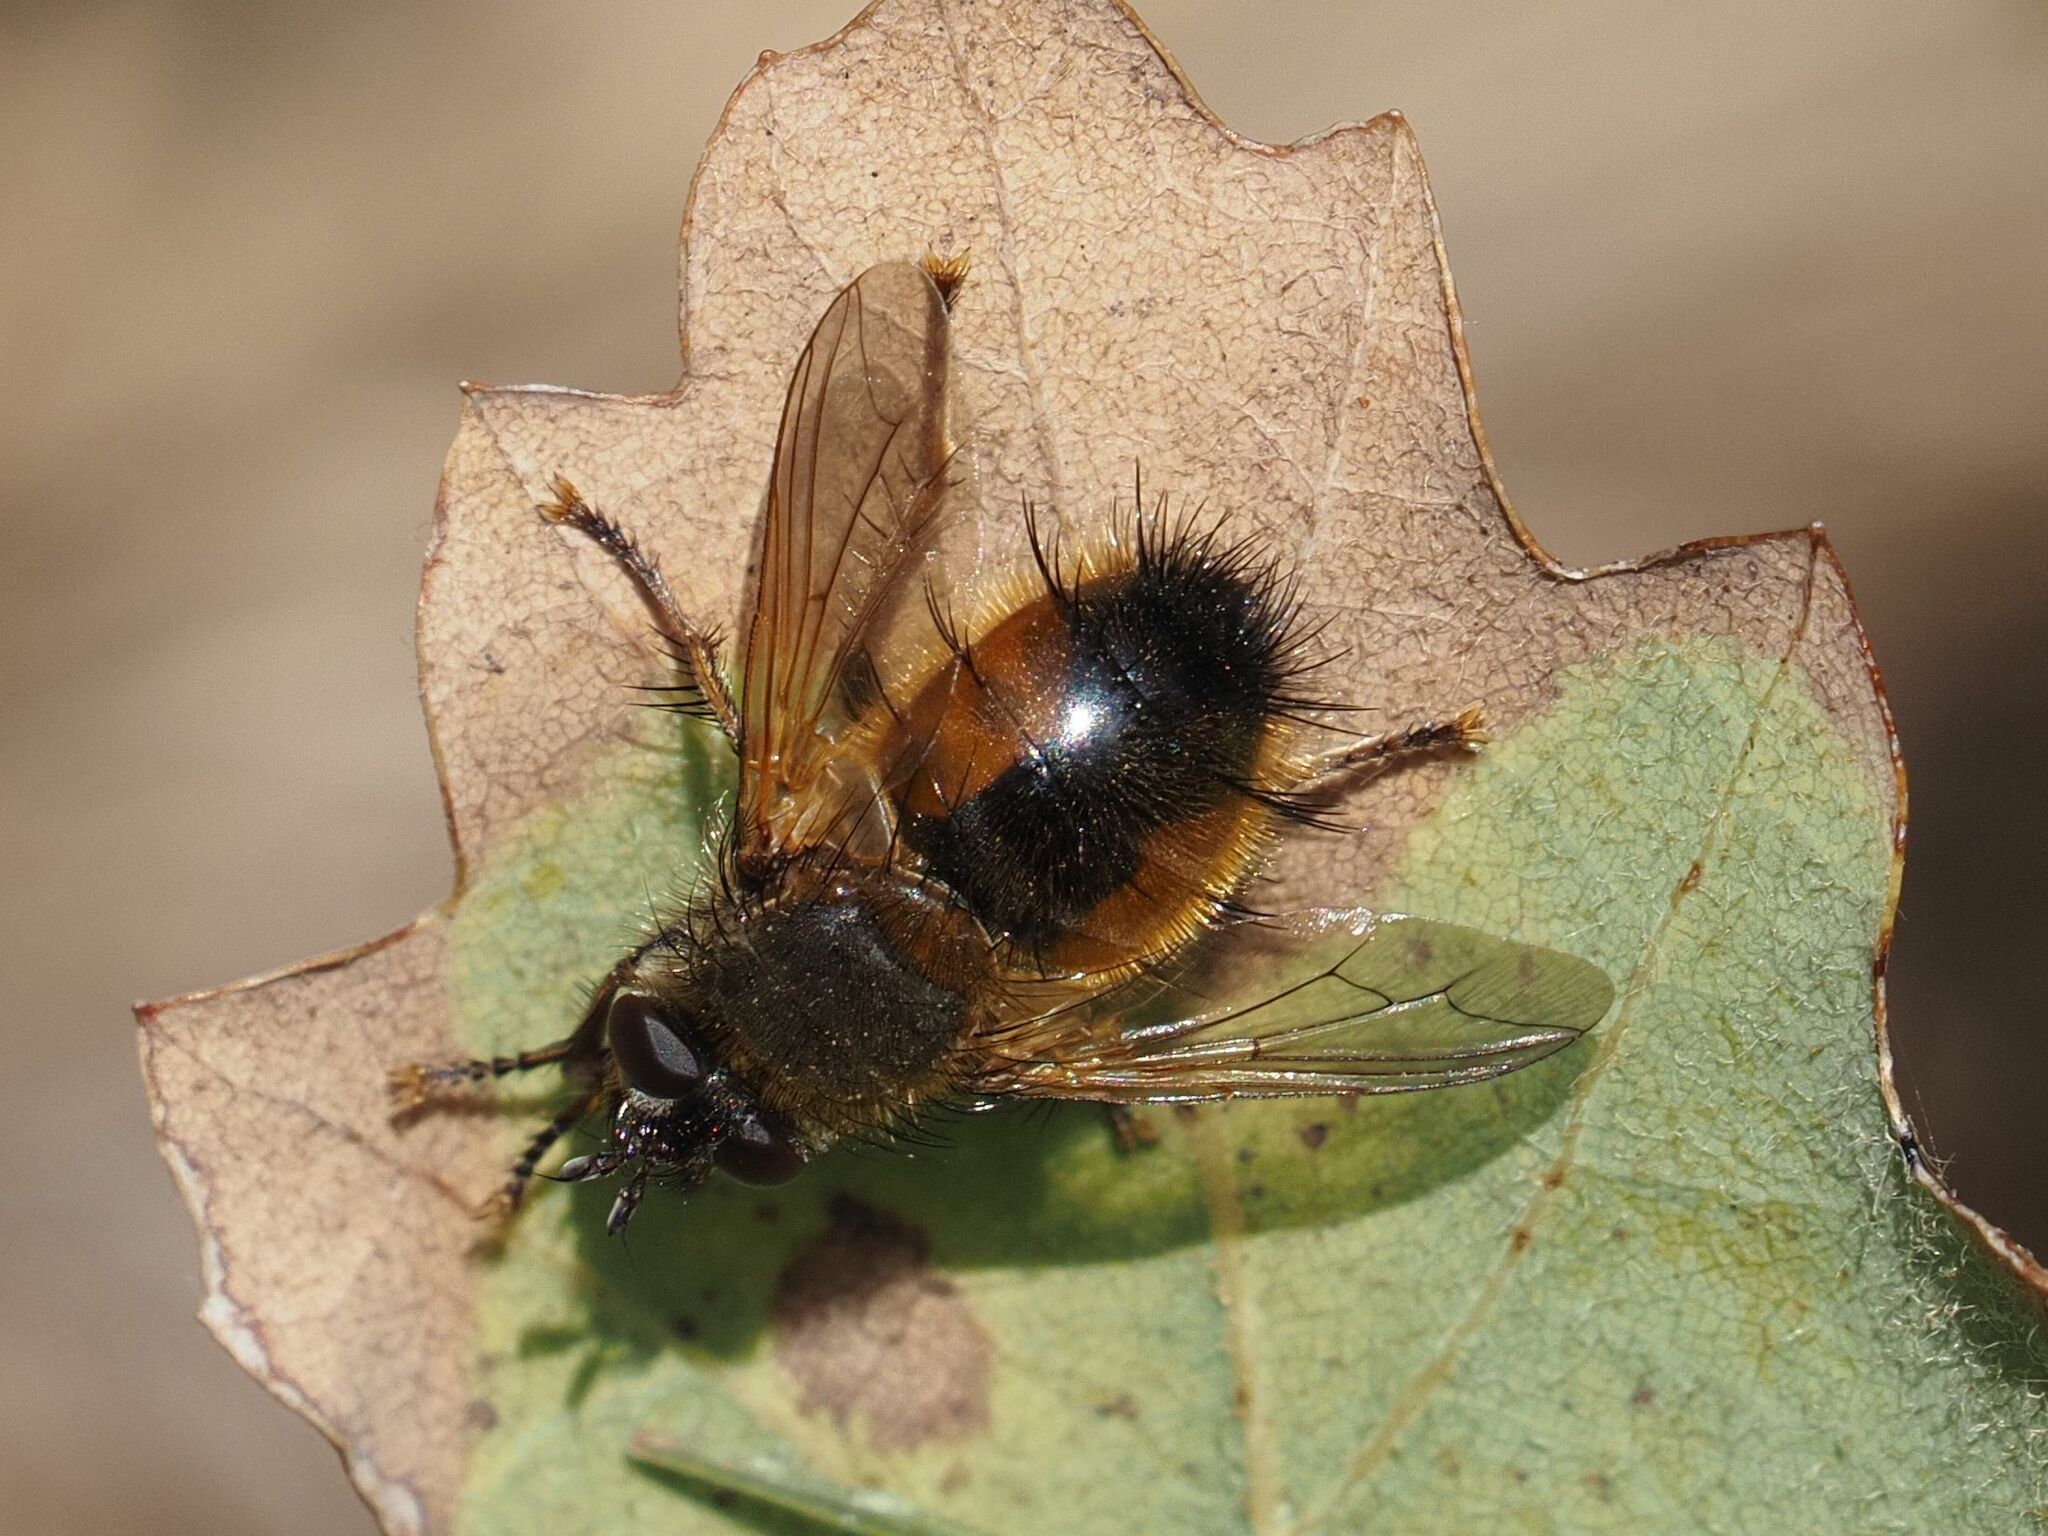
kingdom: Animalia
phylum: Arthropoda
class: Insecta
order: Diptera
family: Tachinidae
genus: Tachina
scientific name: Tachina lurida
